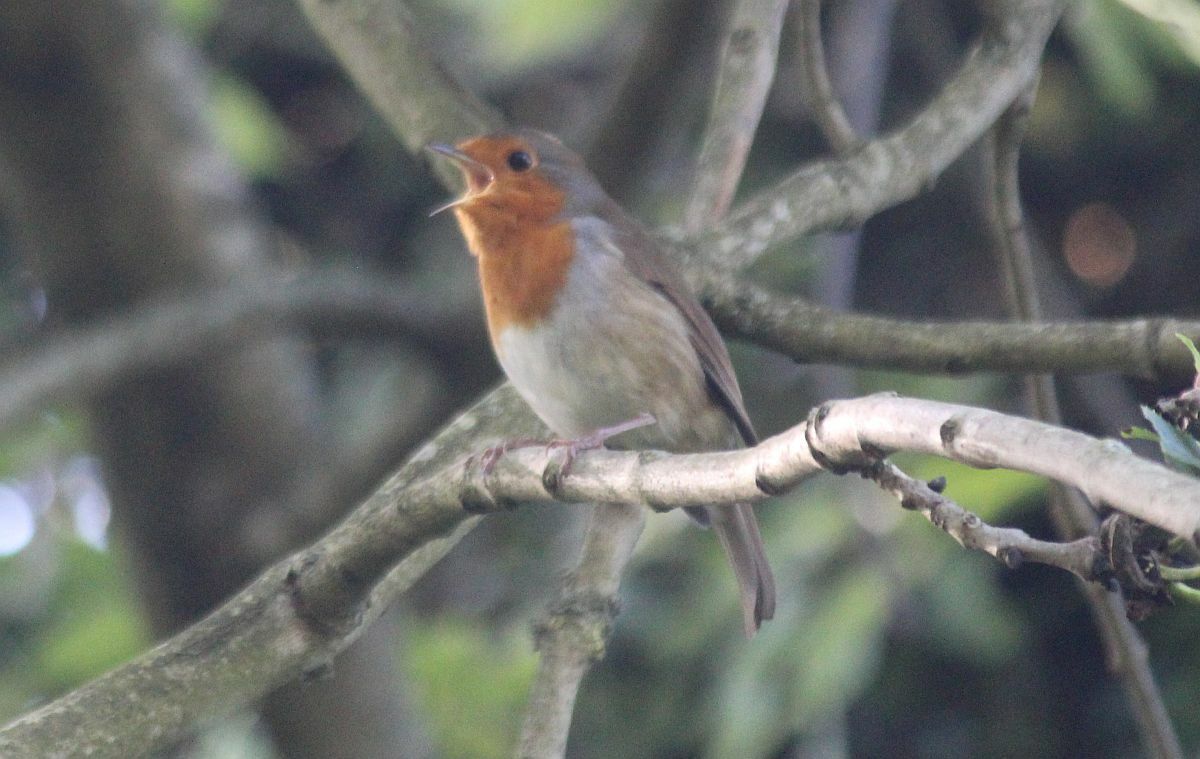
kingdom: Animalia
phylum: Chordata
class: Aves
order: Passeriformes
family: Muscicapidae
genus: Erithacus
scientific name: Erithacus rubecula
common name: European robin
